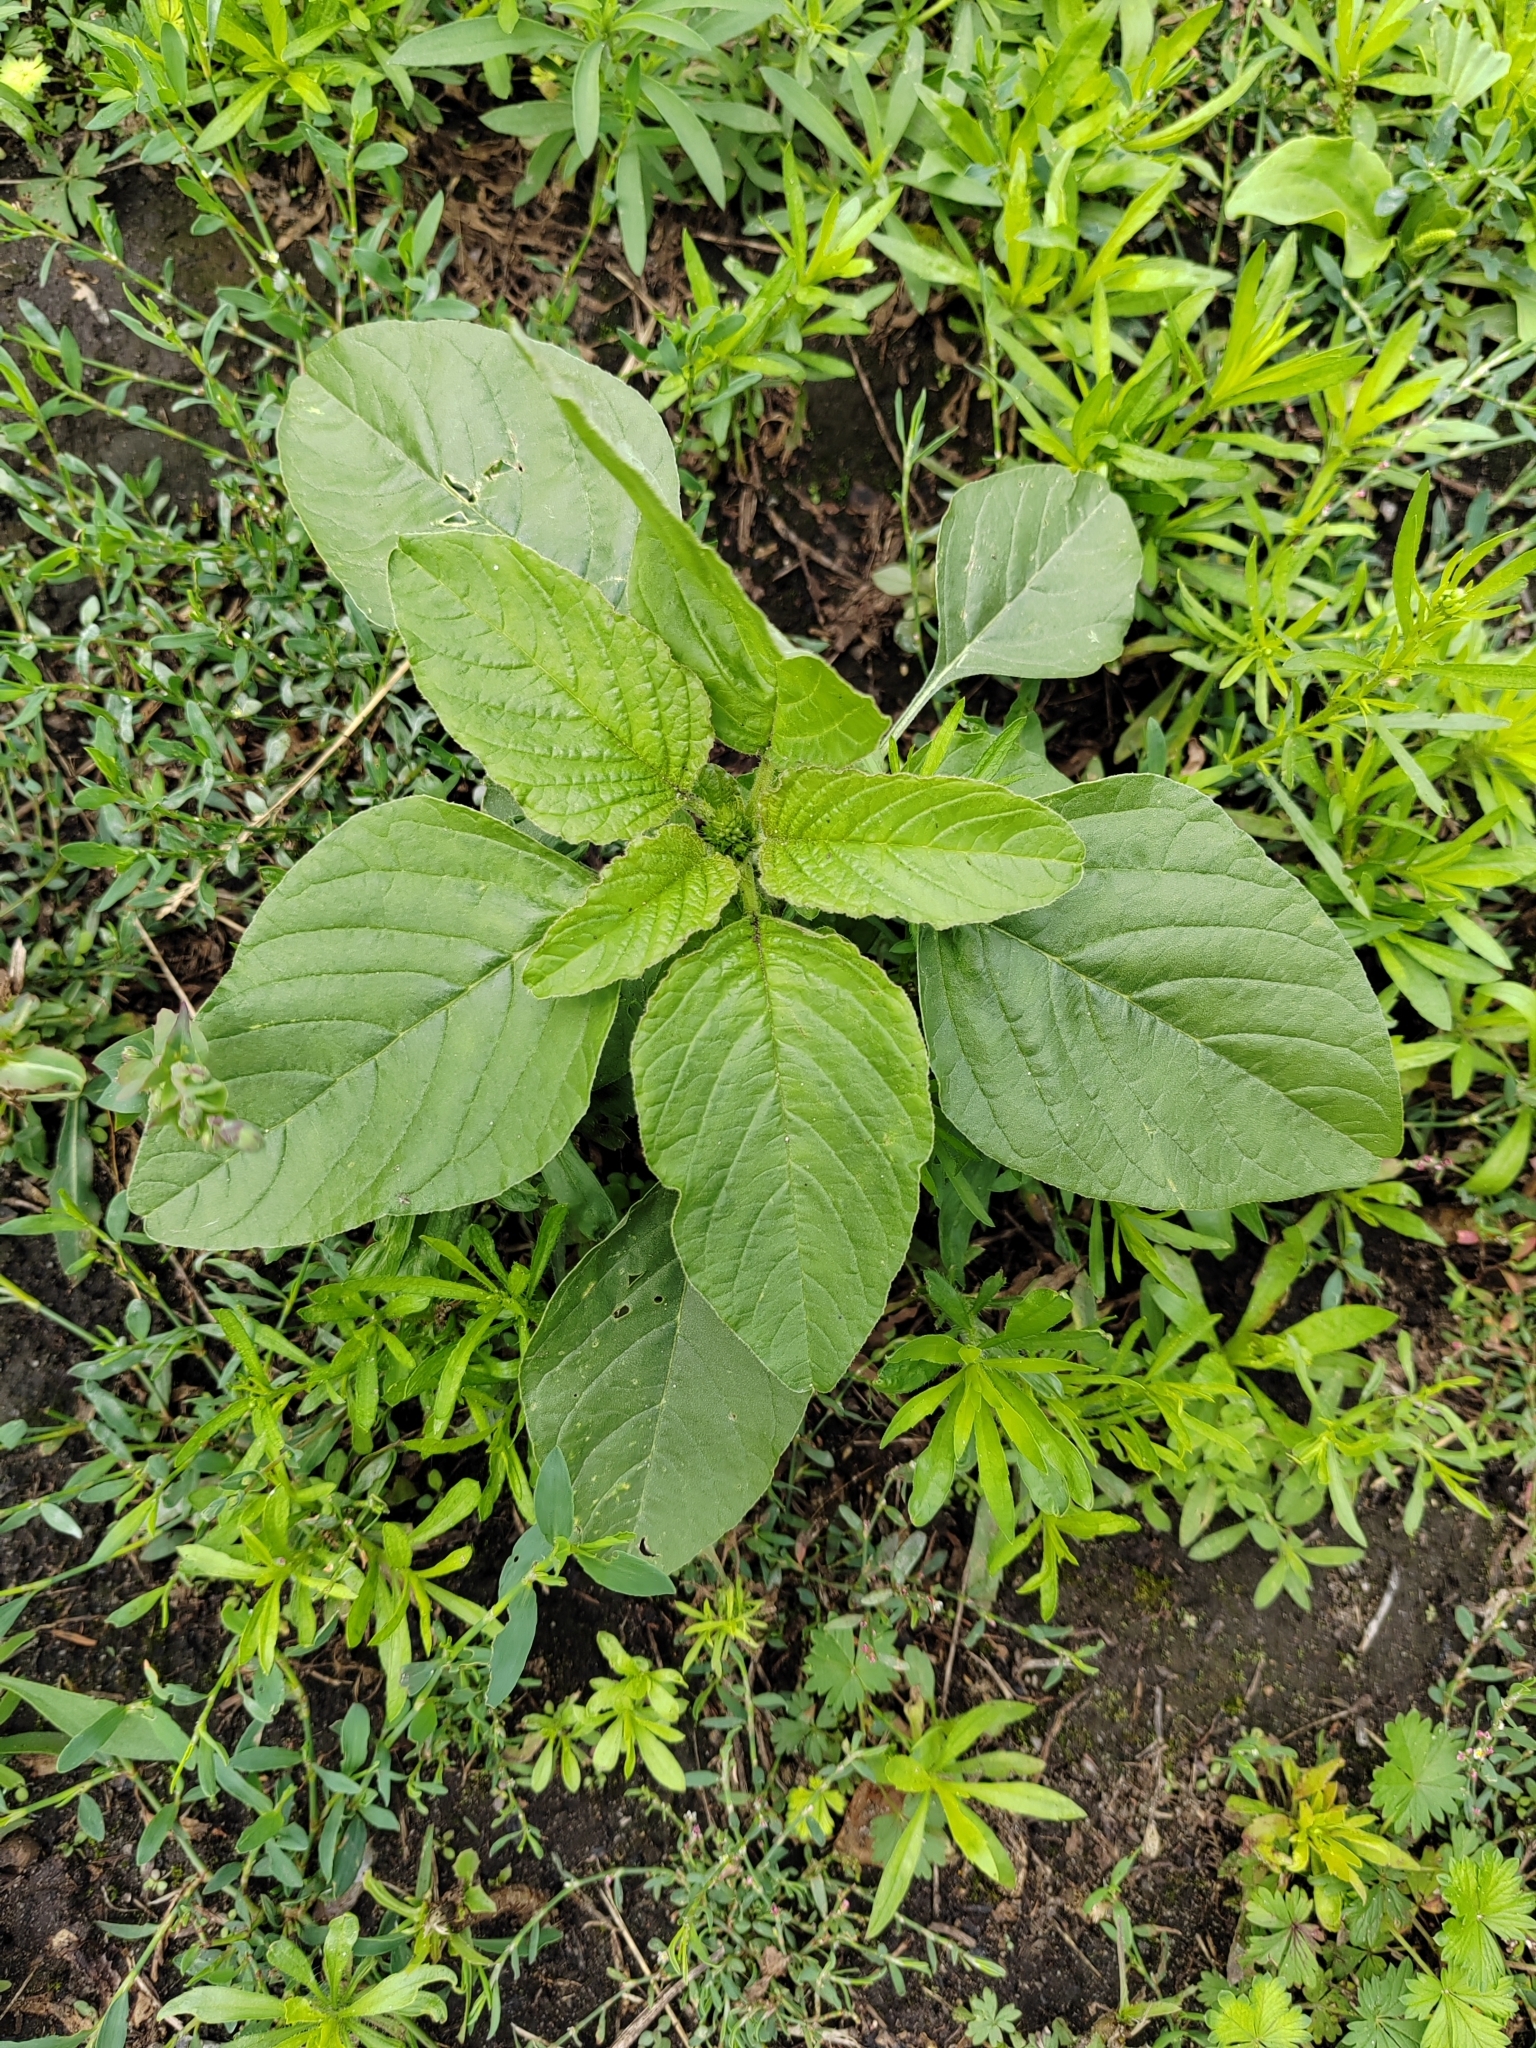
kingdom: Plantae
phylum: Tracheophyta
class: Magnoliopsida
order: Caryophyllales
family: Amaranthaceae
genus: Amaranthus
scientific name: Amaranthus retroflexus
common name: Redroot amaranth
